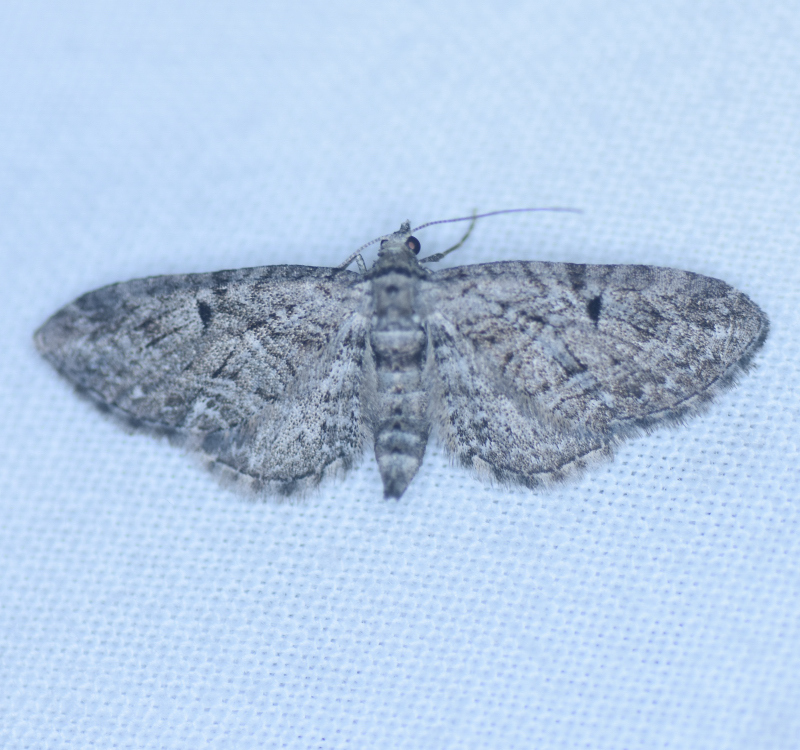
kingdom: Animalia
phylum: Arthropoda
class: Insecta
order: Lepidoptera
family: Geometridae
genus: Eupithecia
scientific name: Eupithecia interruptofasciata
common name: Juniper looper moth
